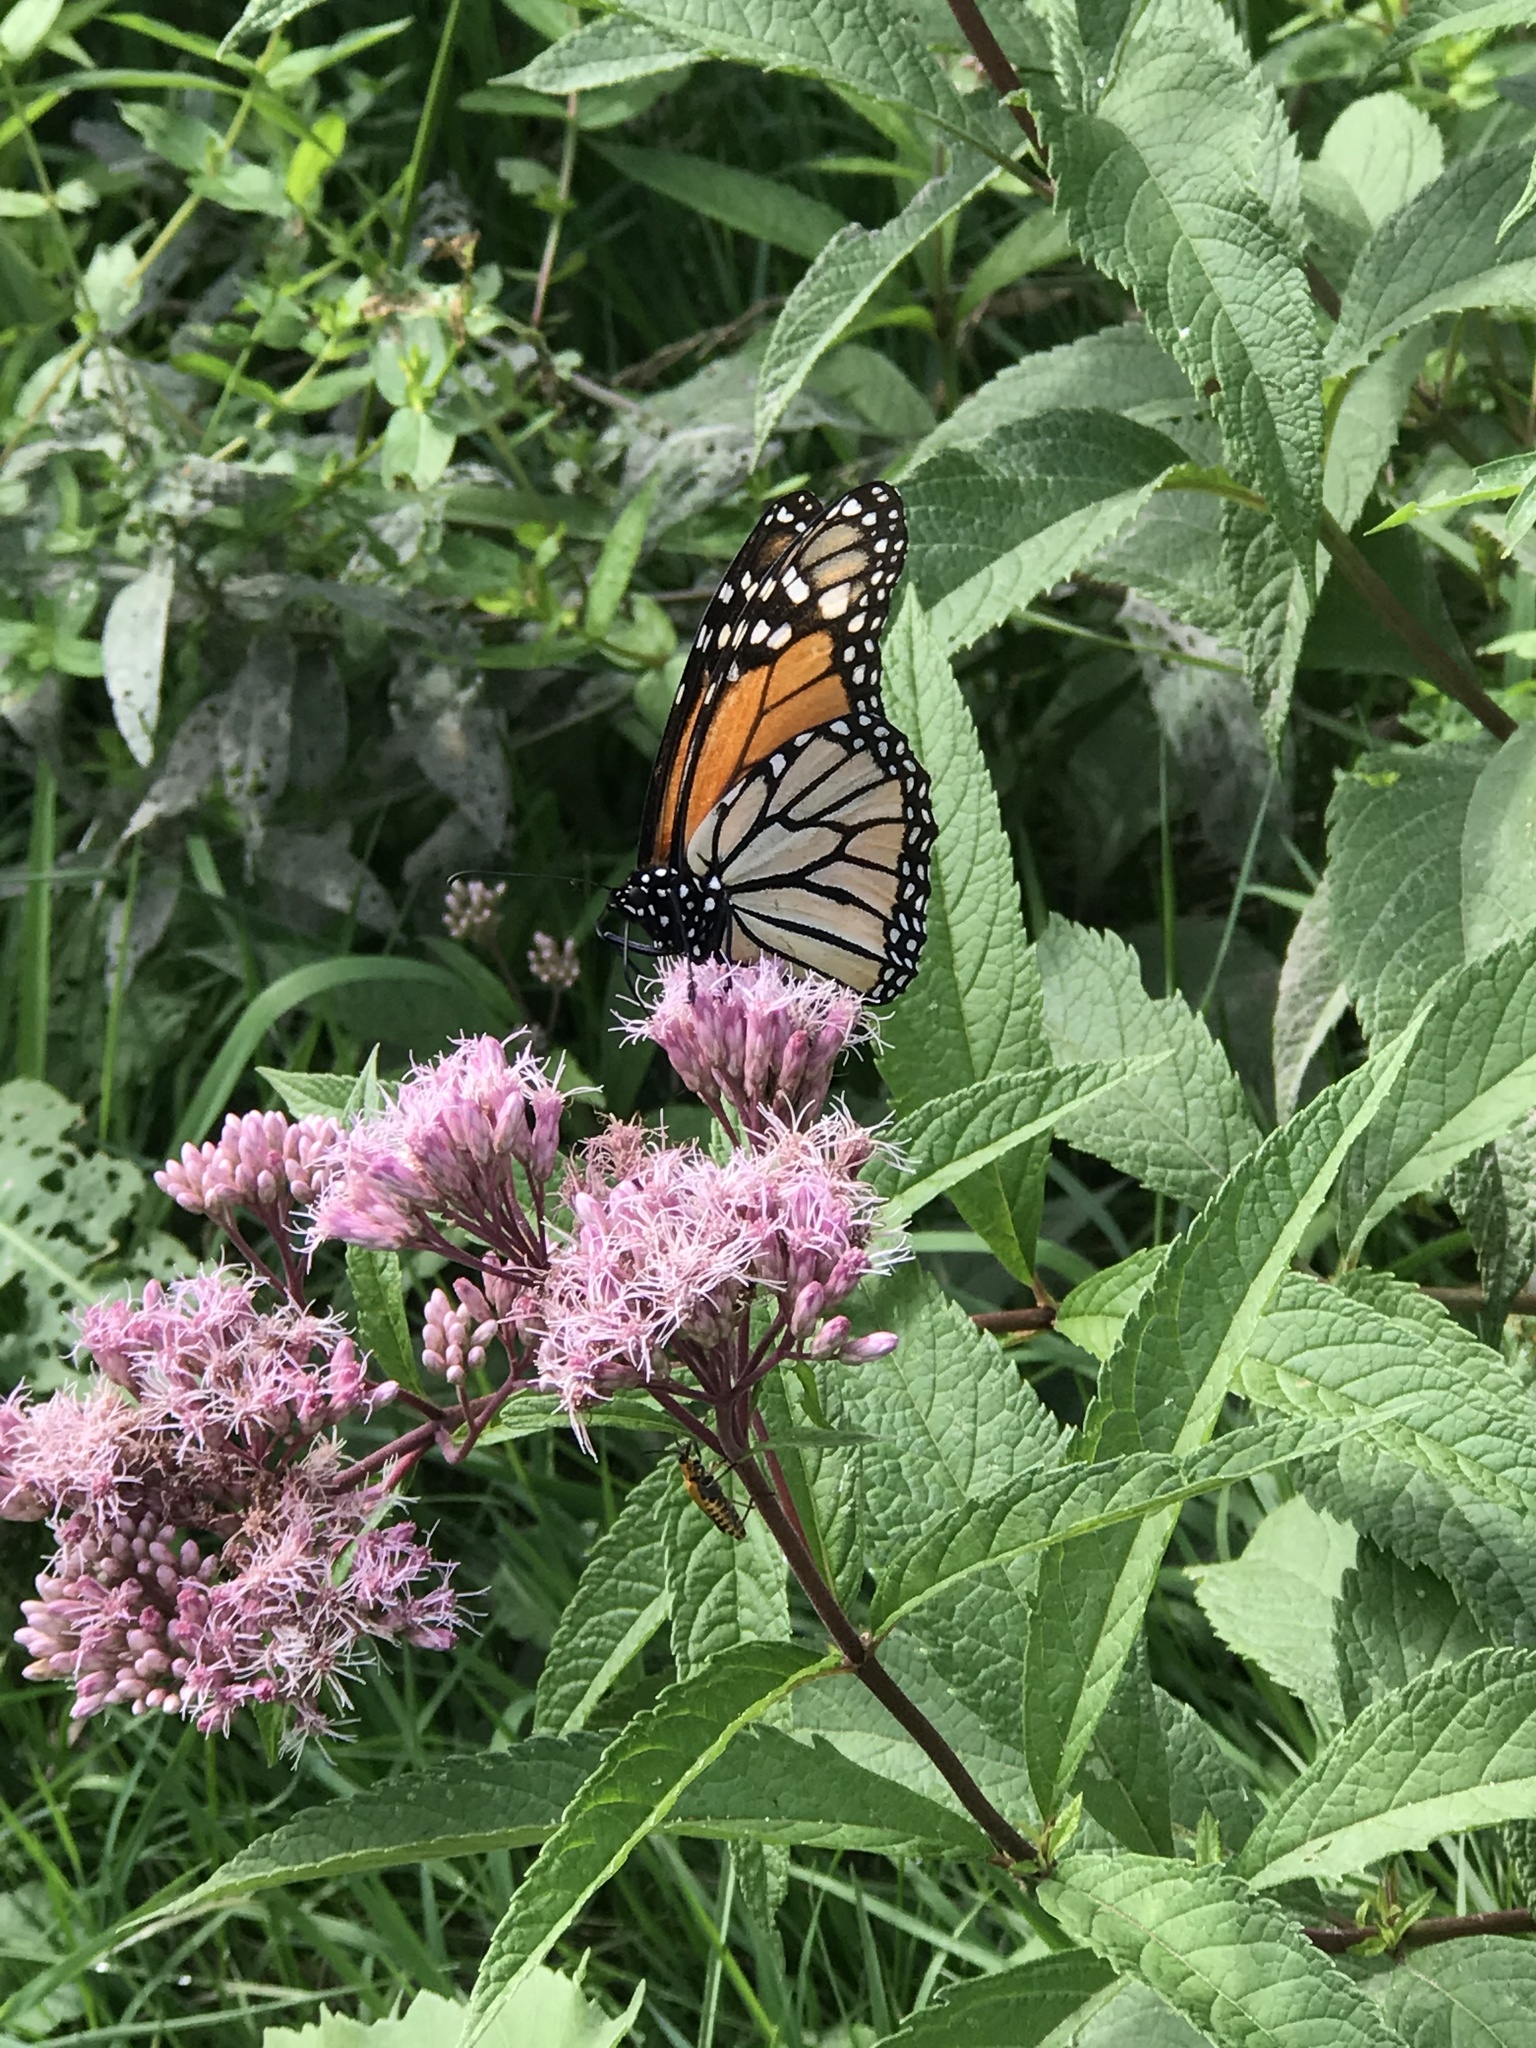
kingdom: Animalia
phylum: Arthropoda
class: Insecta
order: Lepidoptera
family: Nymphalidae
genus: Danaus
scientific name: Danaus plexippus
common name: Monarch
